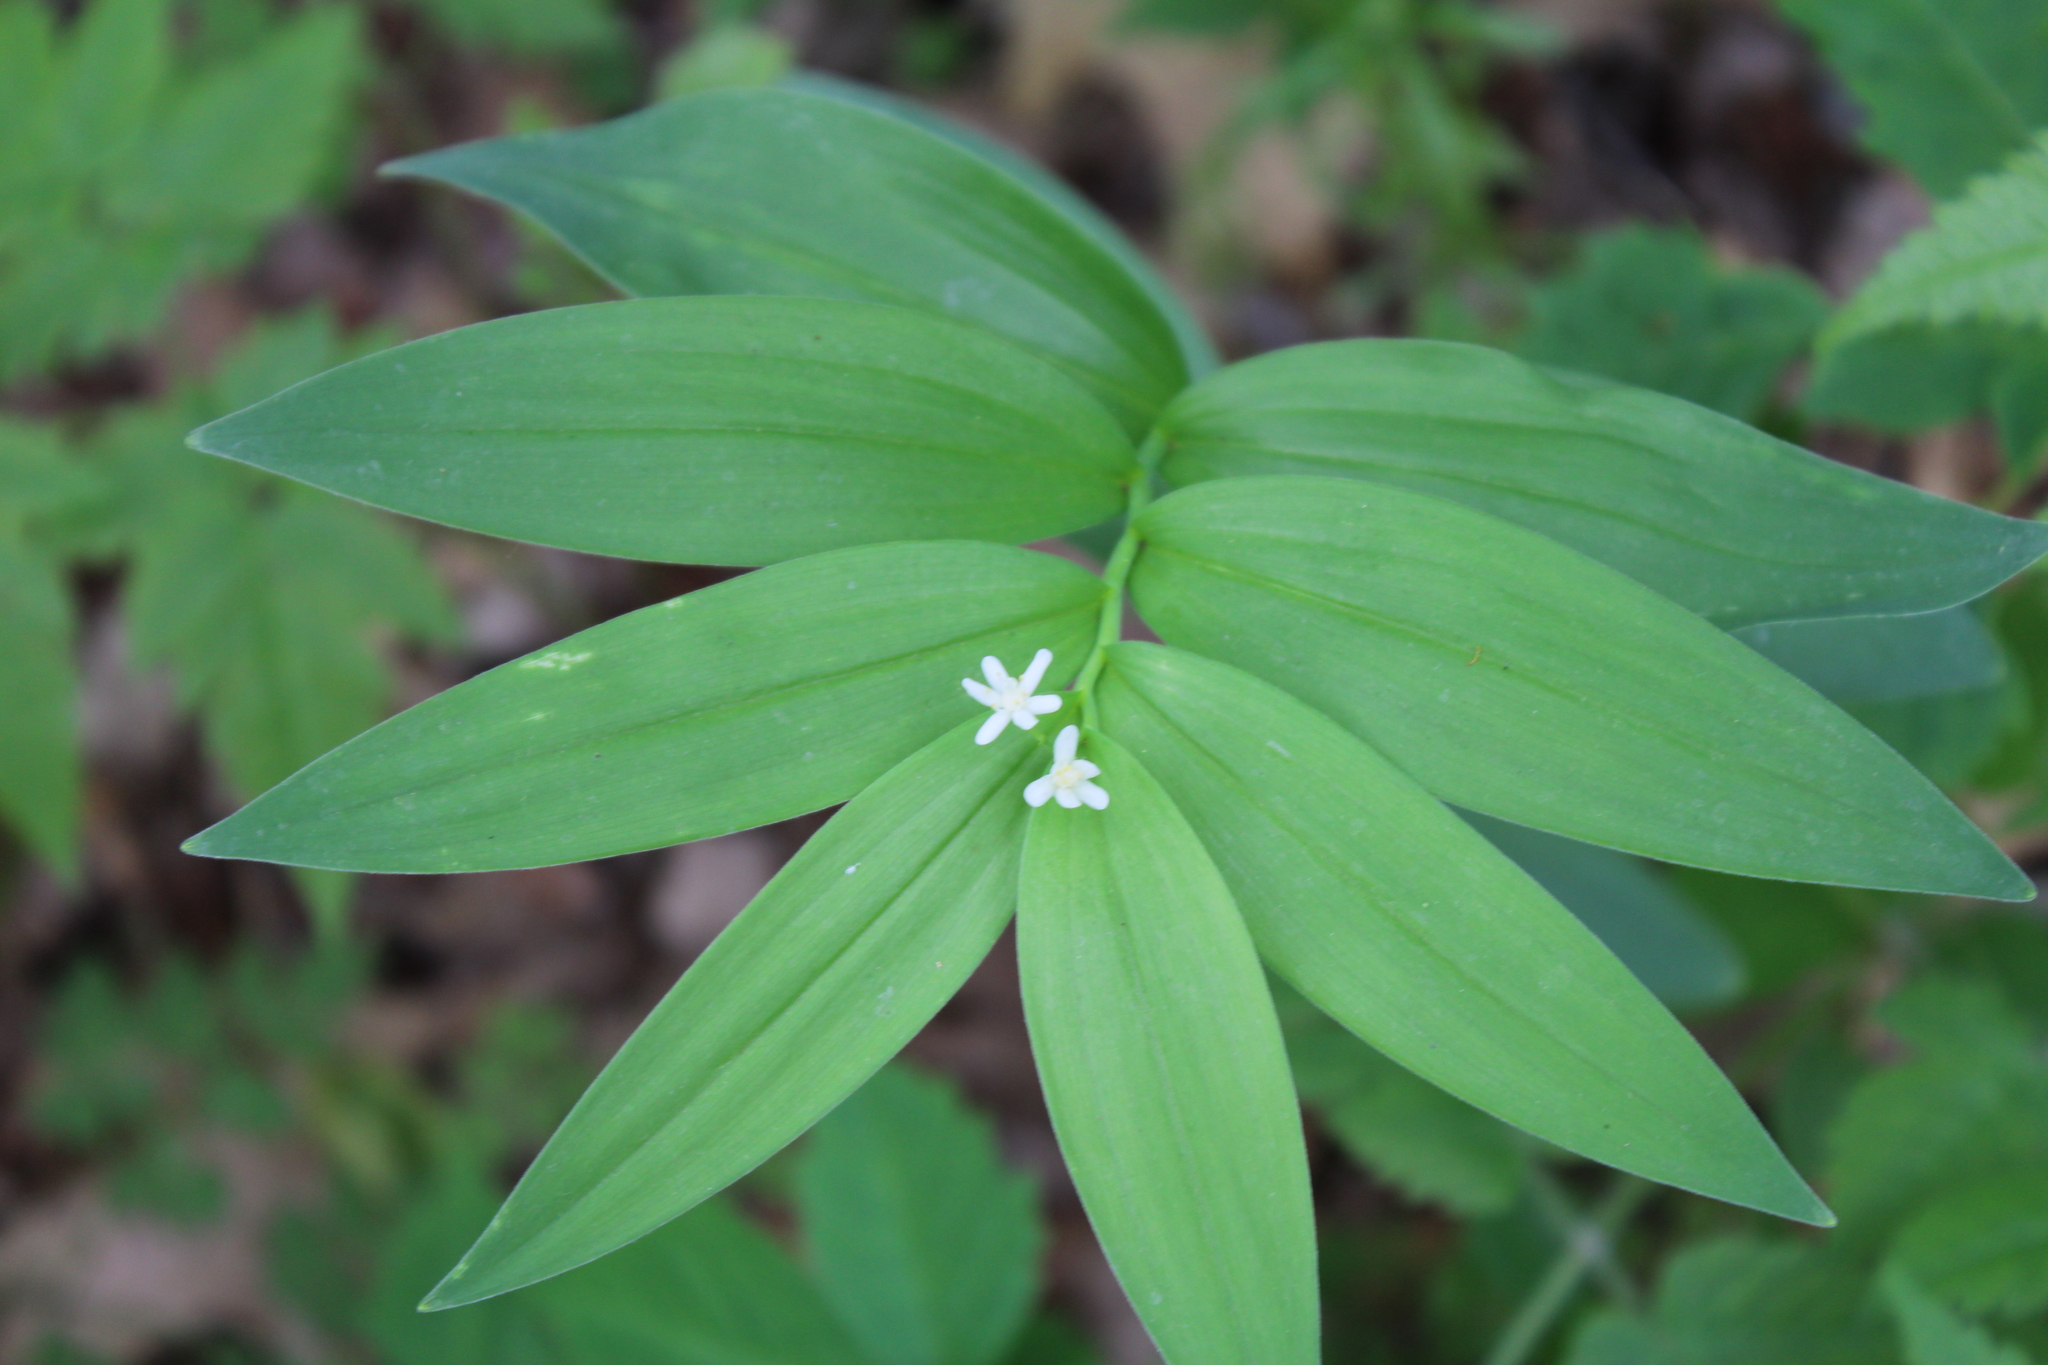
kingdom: Plantae
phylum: Tracheophyta
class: Liliopsida
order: Asparagales
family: Asparagaceae
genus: Maianthemum
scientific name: Maianthemum stellatum
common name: Little false solomon's seal
